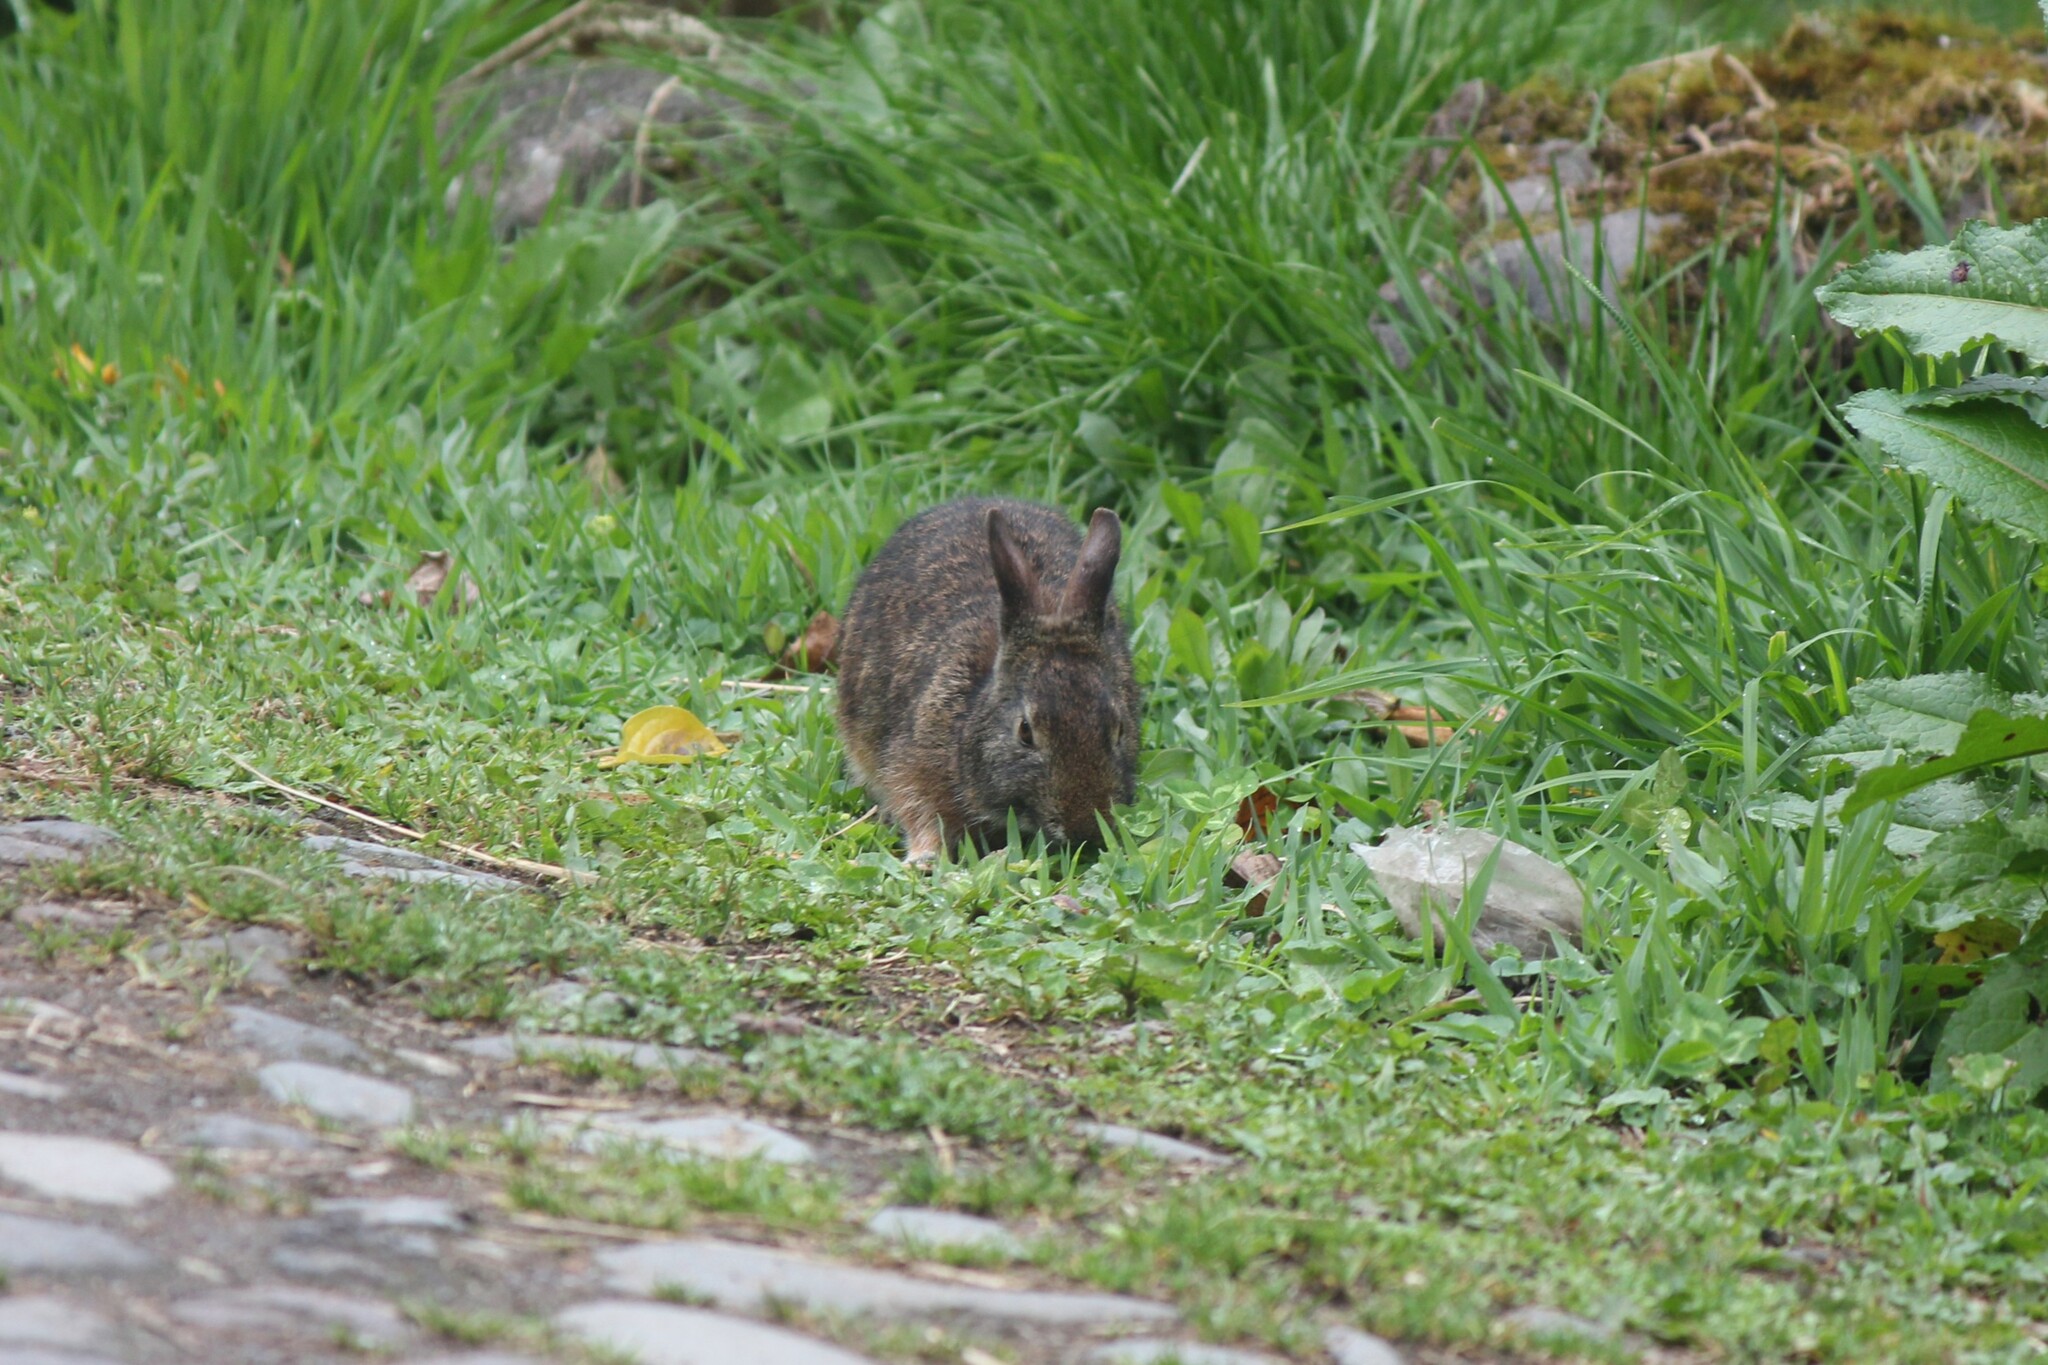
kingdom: Animalia
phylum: Chordata
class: Mammalia
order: Lagomorpha
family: Leporidae
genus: Sylvilagus
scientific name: Sylvilagus andinus
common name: Andean cottontail
